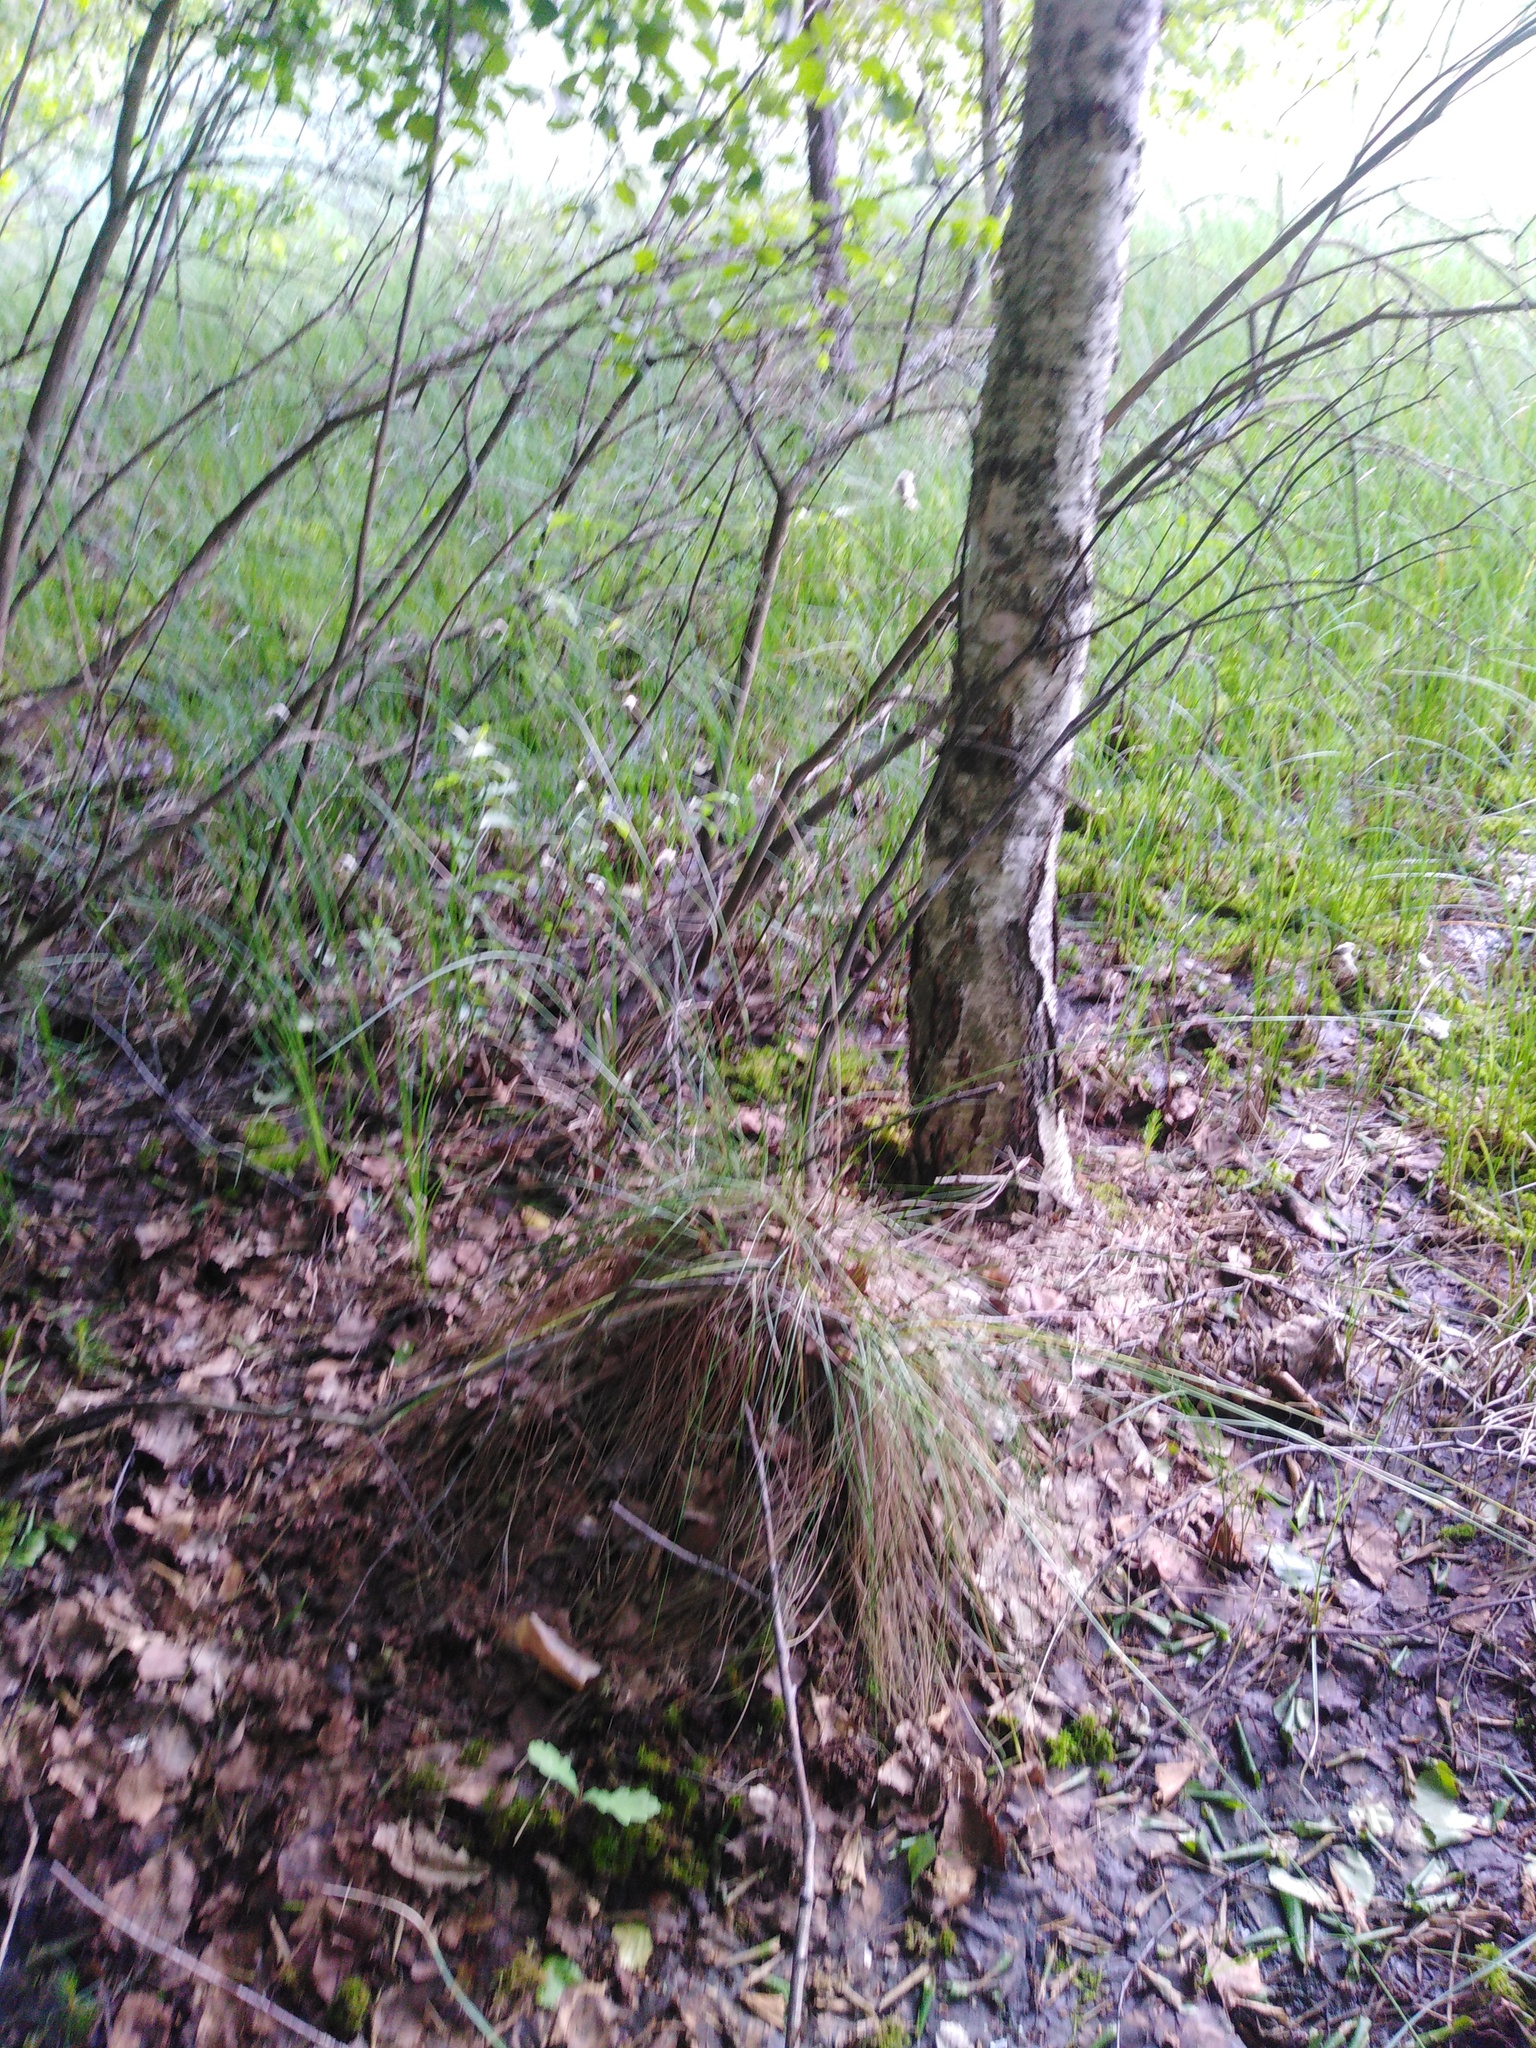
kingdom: Plantae
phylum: Tracheophyta
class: Liliopsida
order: Poales
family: Cyperaceae
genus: Eriophorum
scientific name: Eriophorum vaginatum
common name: Hare's-tail cottongrass
